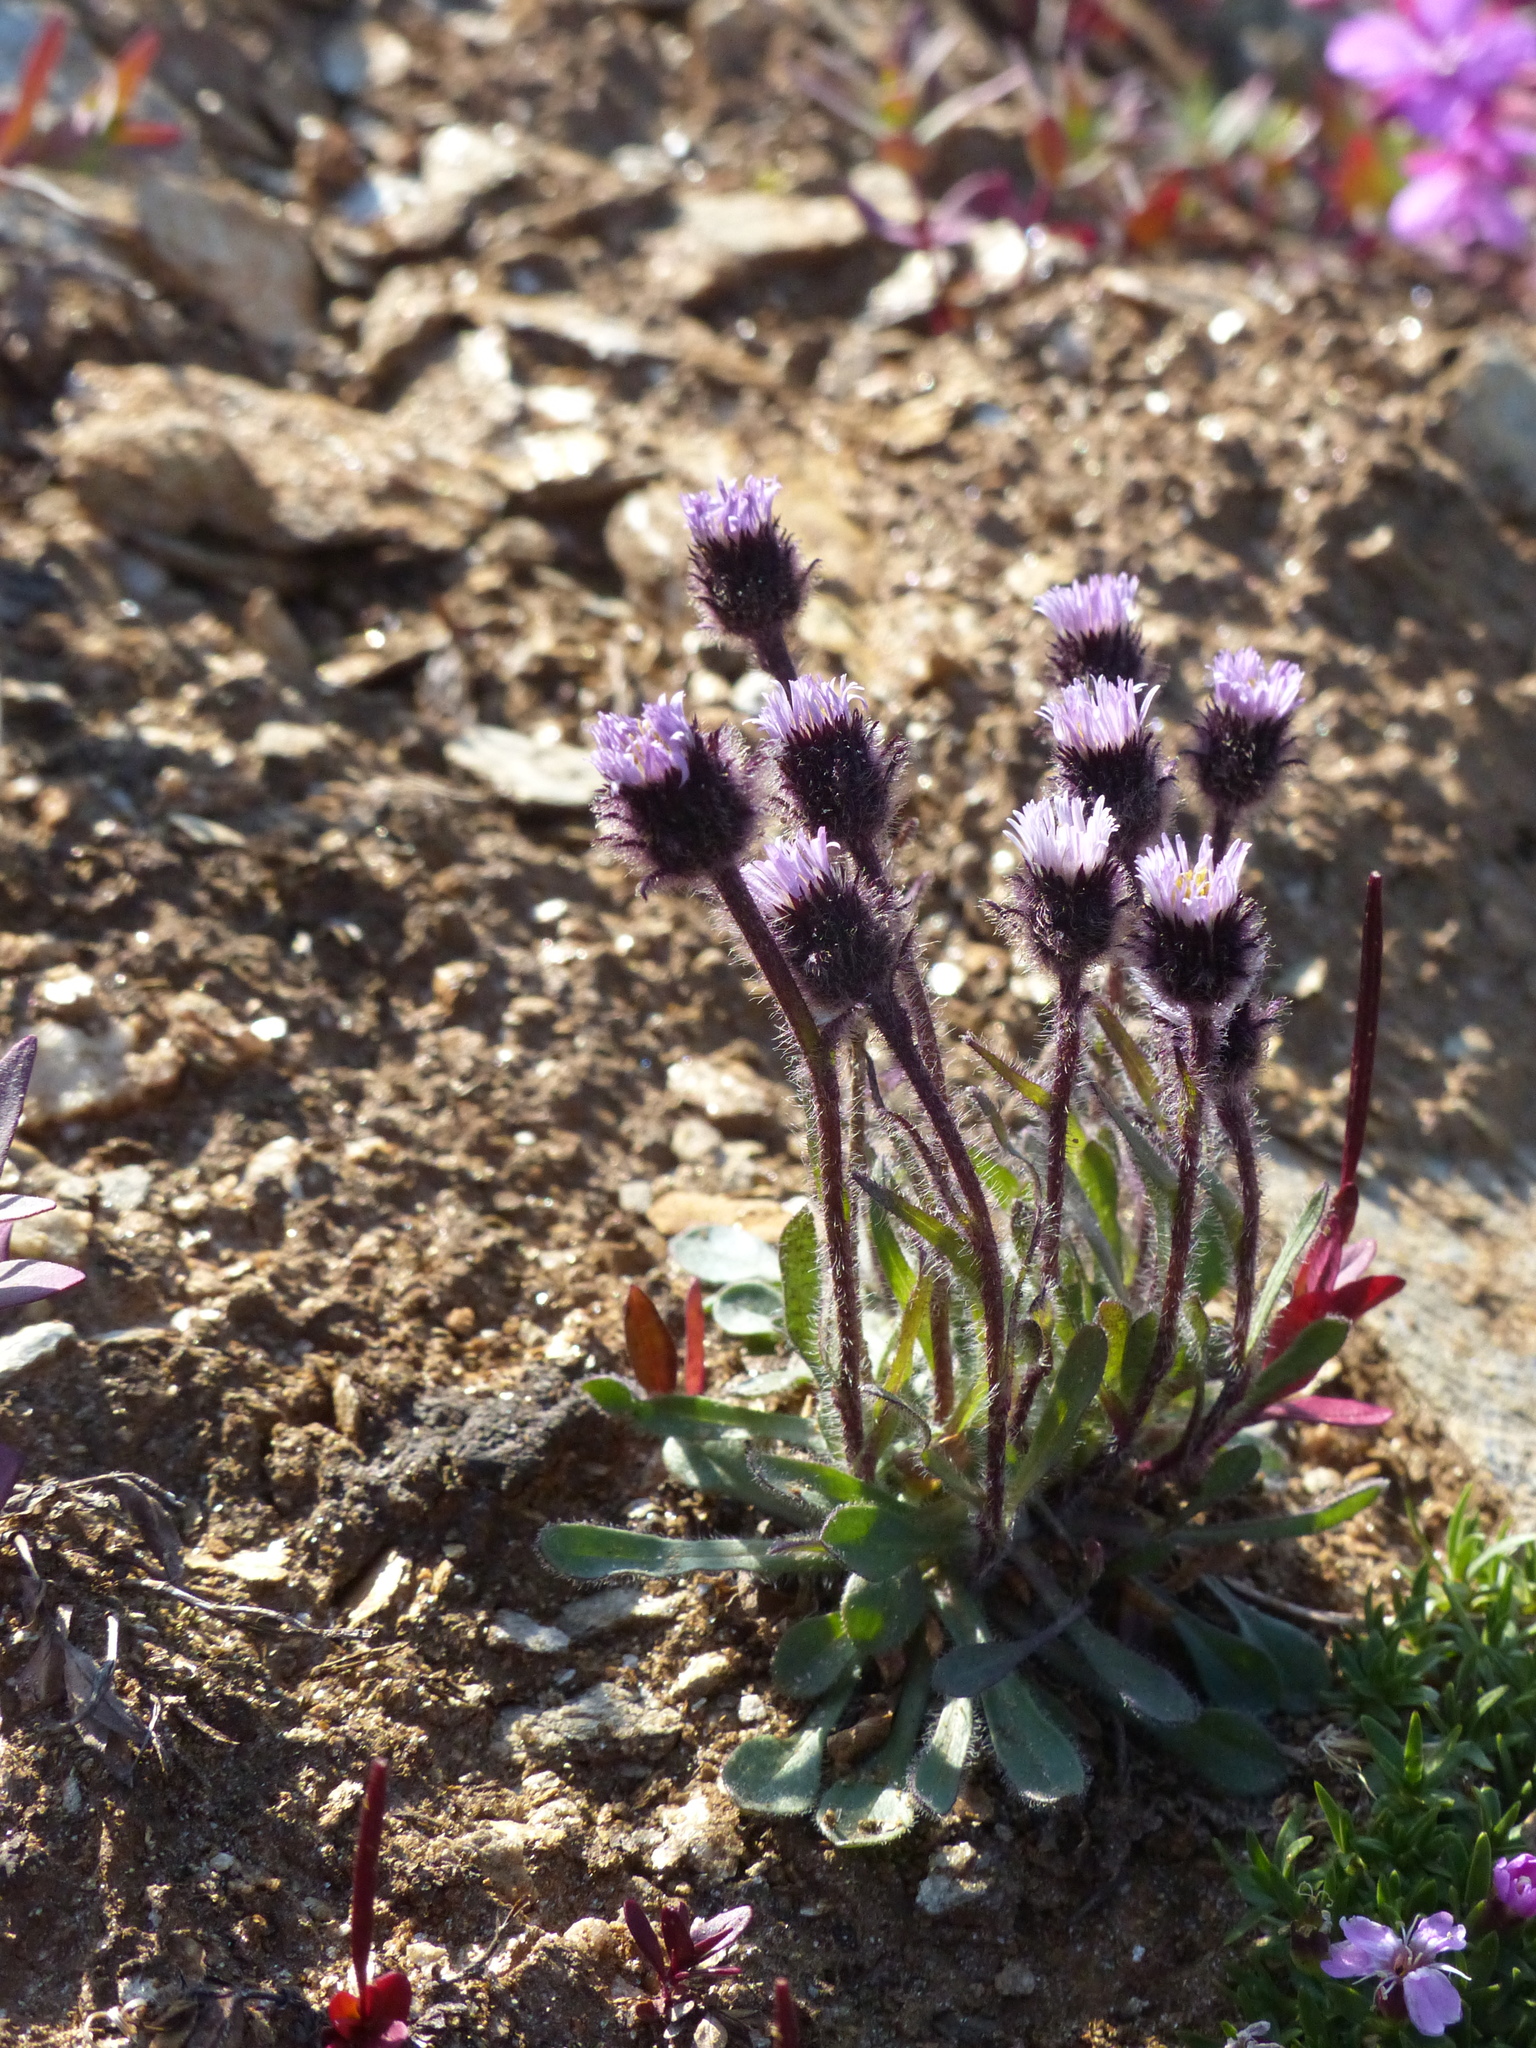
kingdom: Plantae
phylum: Tracheophyta
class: Magnoliopsida
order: Asterales
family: Asteraceae
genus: Erigeron
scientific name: Erigeron humilis
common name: Arctic-alpine fleabane
